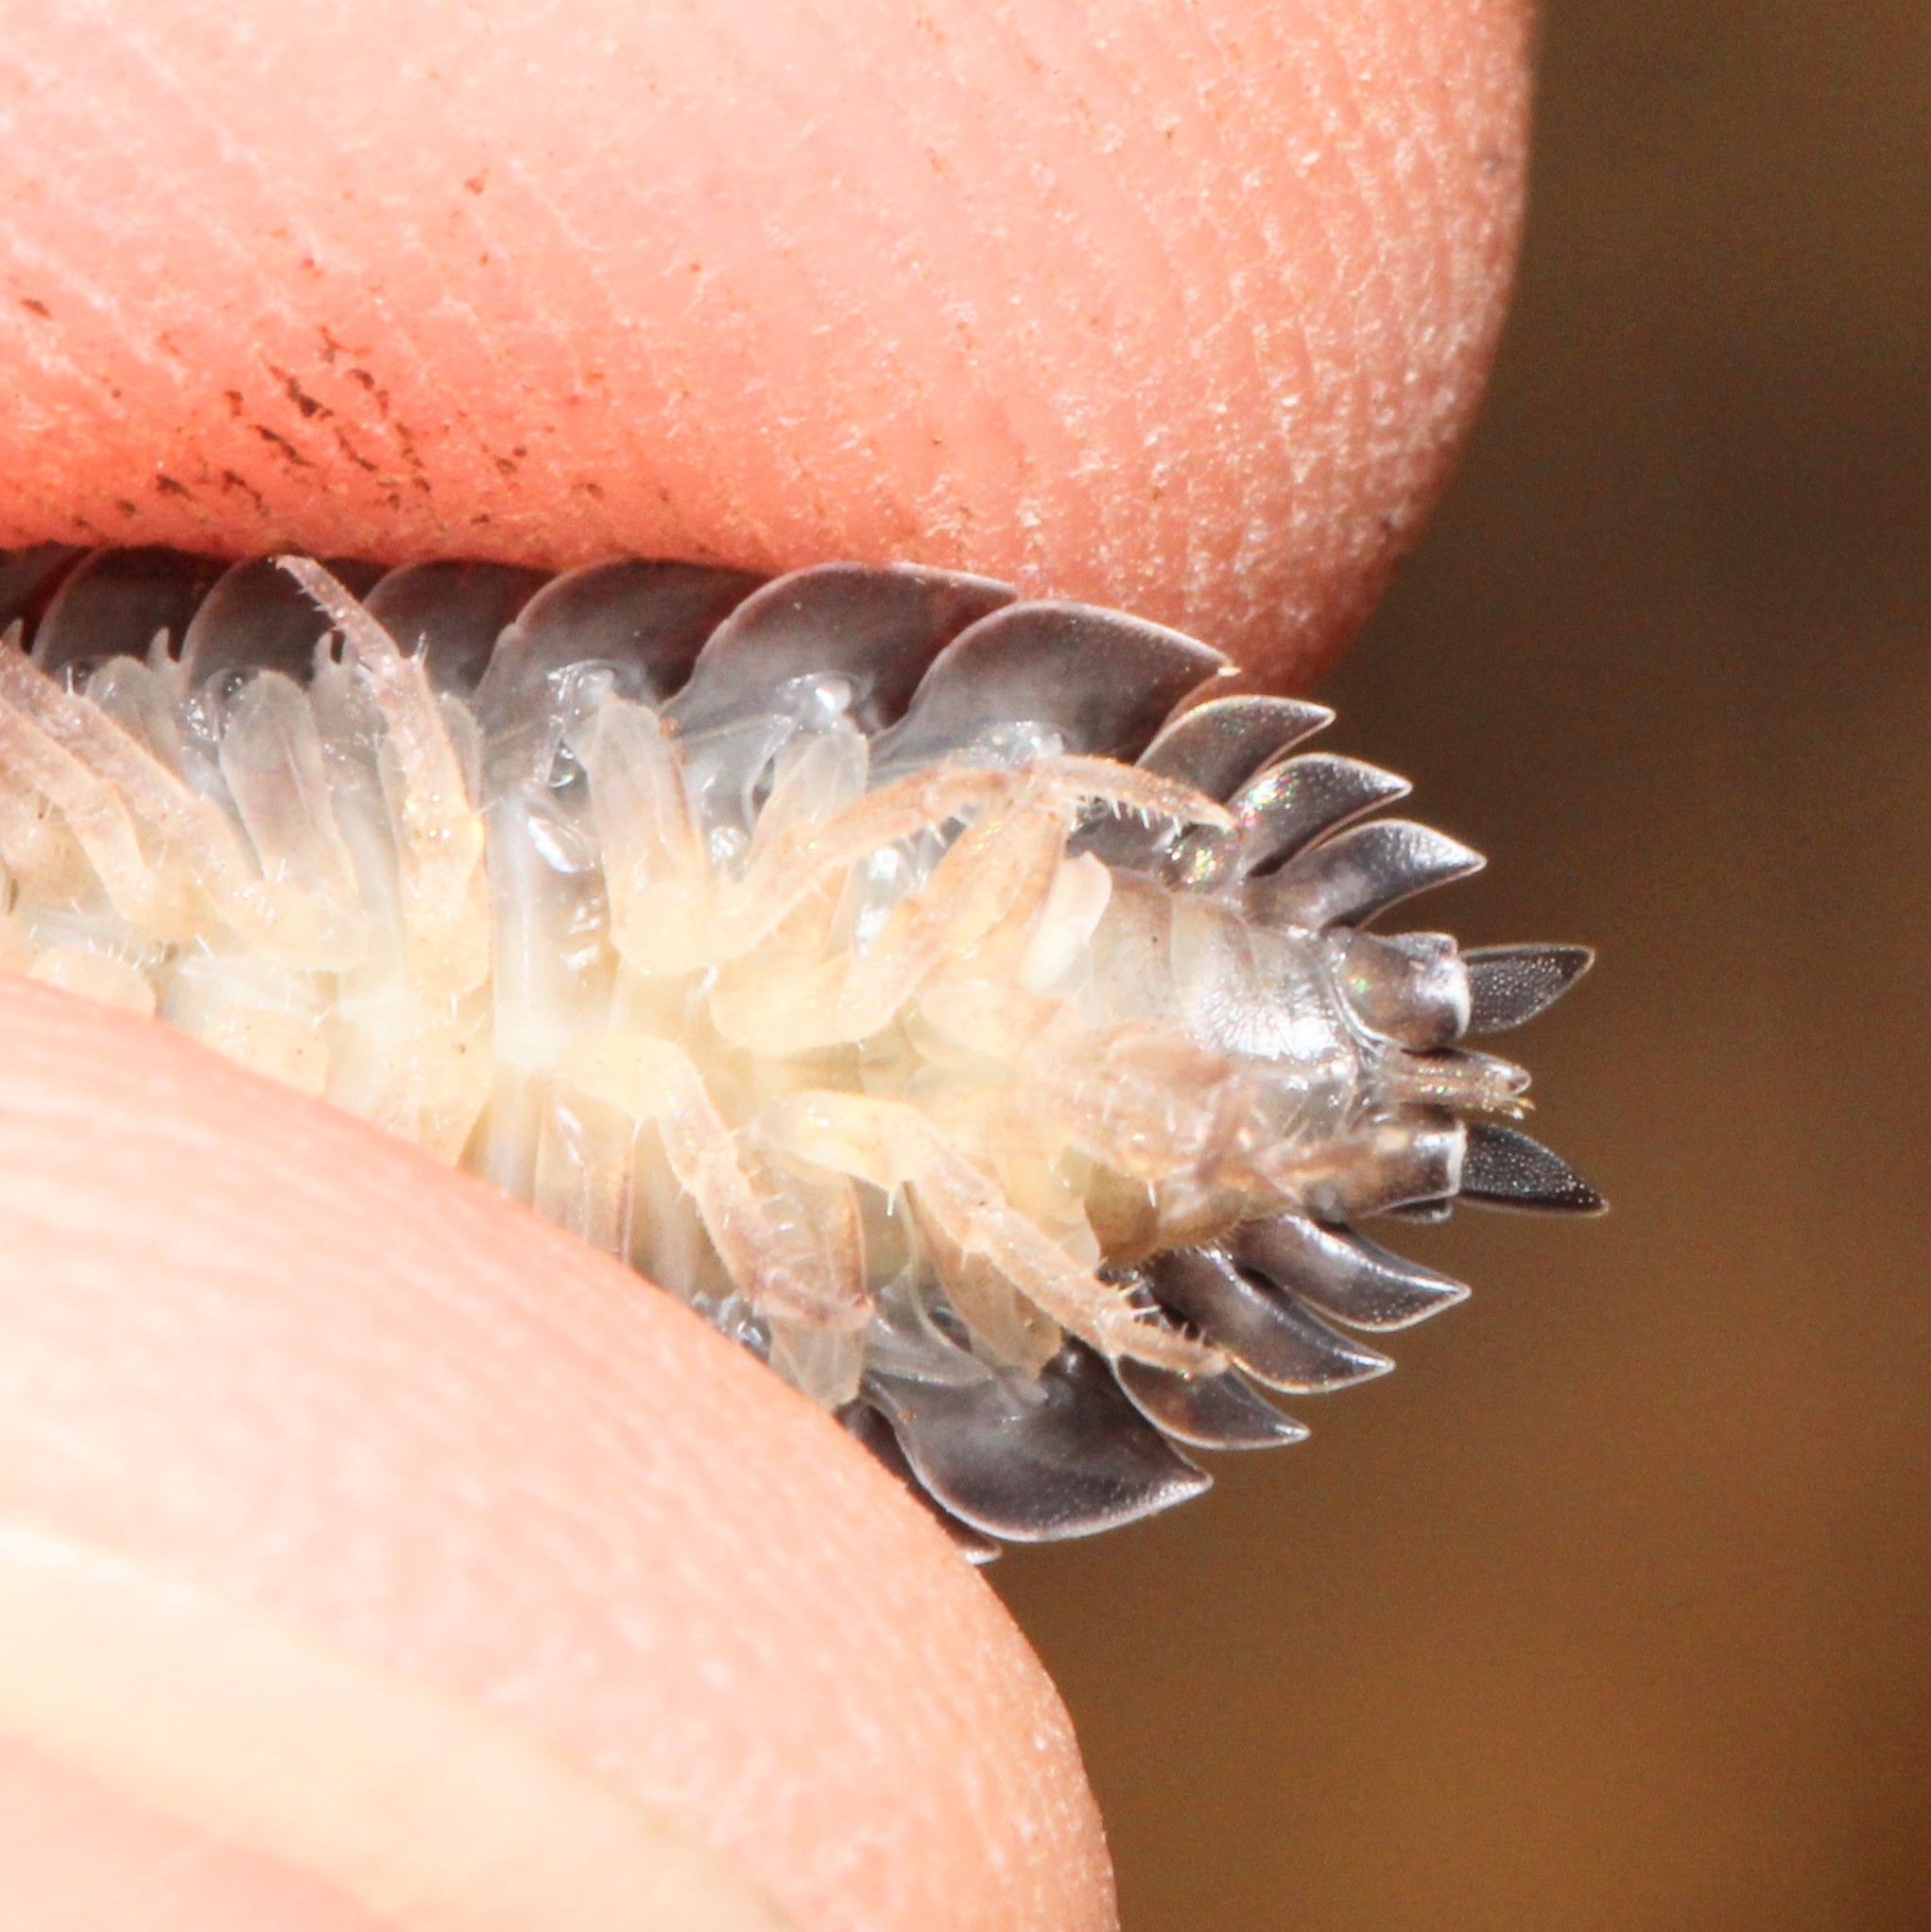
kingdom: Animalia
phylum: Arthropoda
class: Malacostraca
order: Isopoda
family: Porcellionidae
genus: Porcellio
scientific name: Porcellio scaber
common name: Common rough woodlouse
